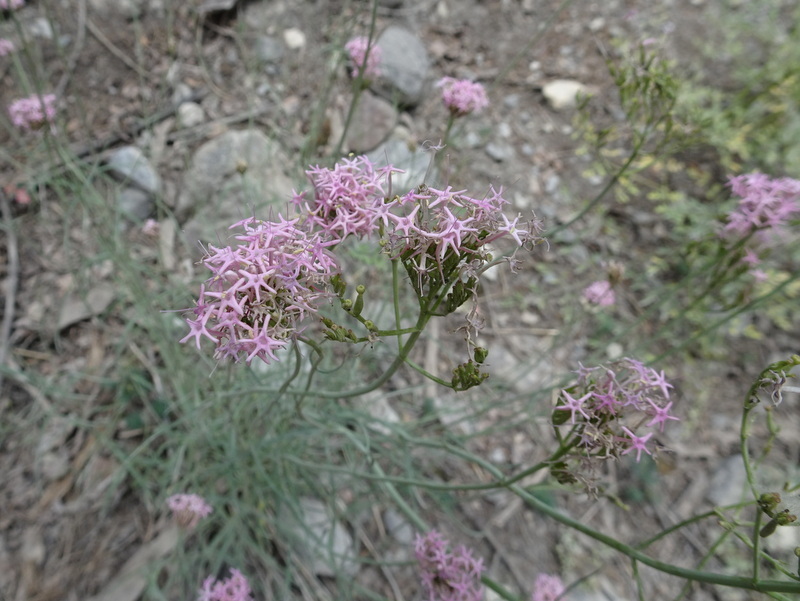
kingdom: Plantae
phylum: Tracheophyta
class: Magnoliopsida
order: Dipsacales
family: Caprifoliaceae
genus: Centranthus
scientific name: Centranthus angustifolius
